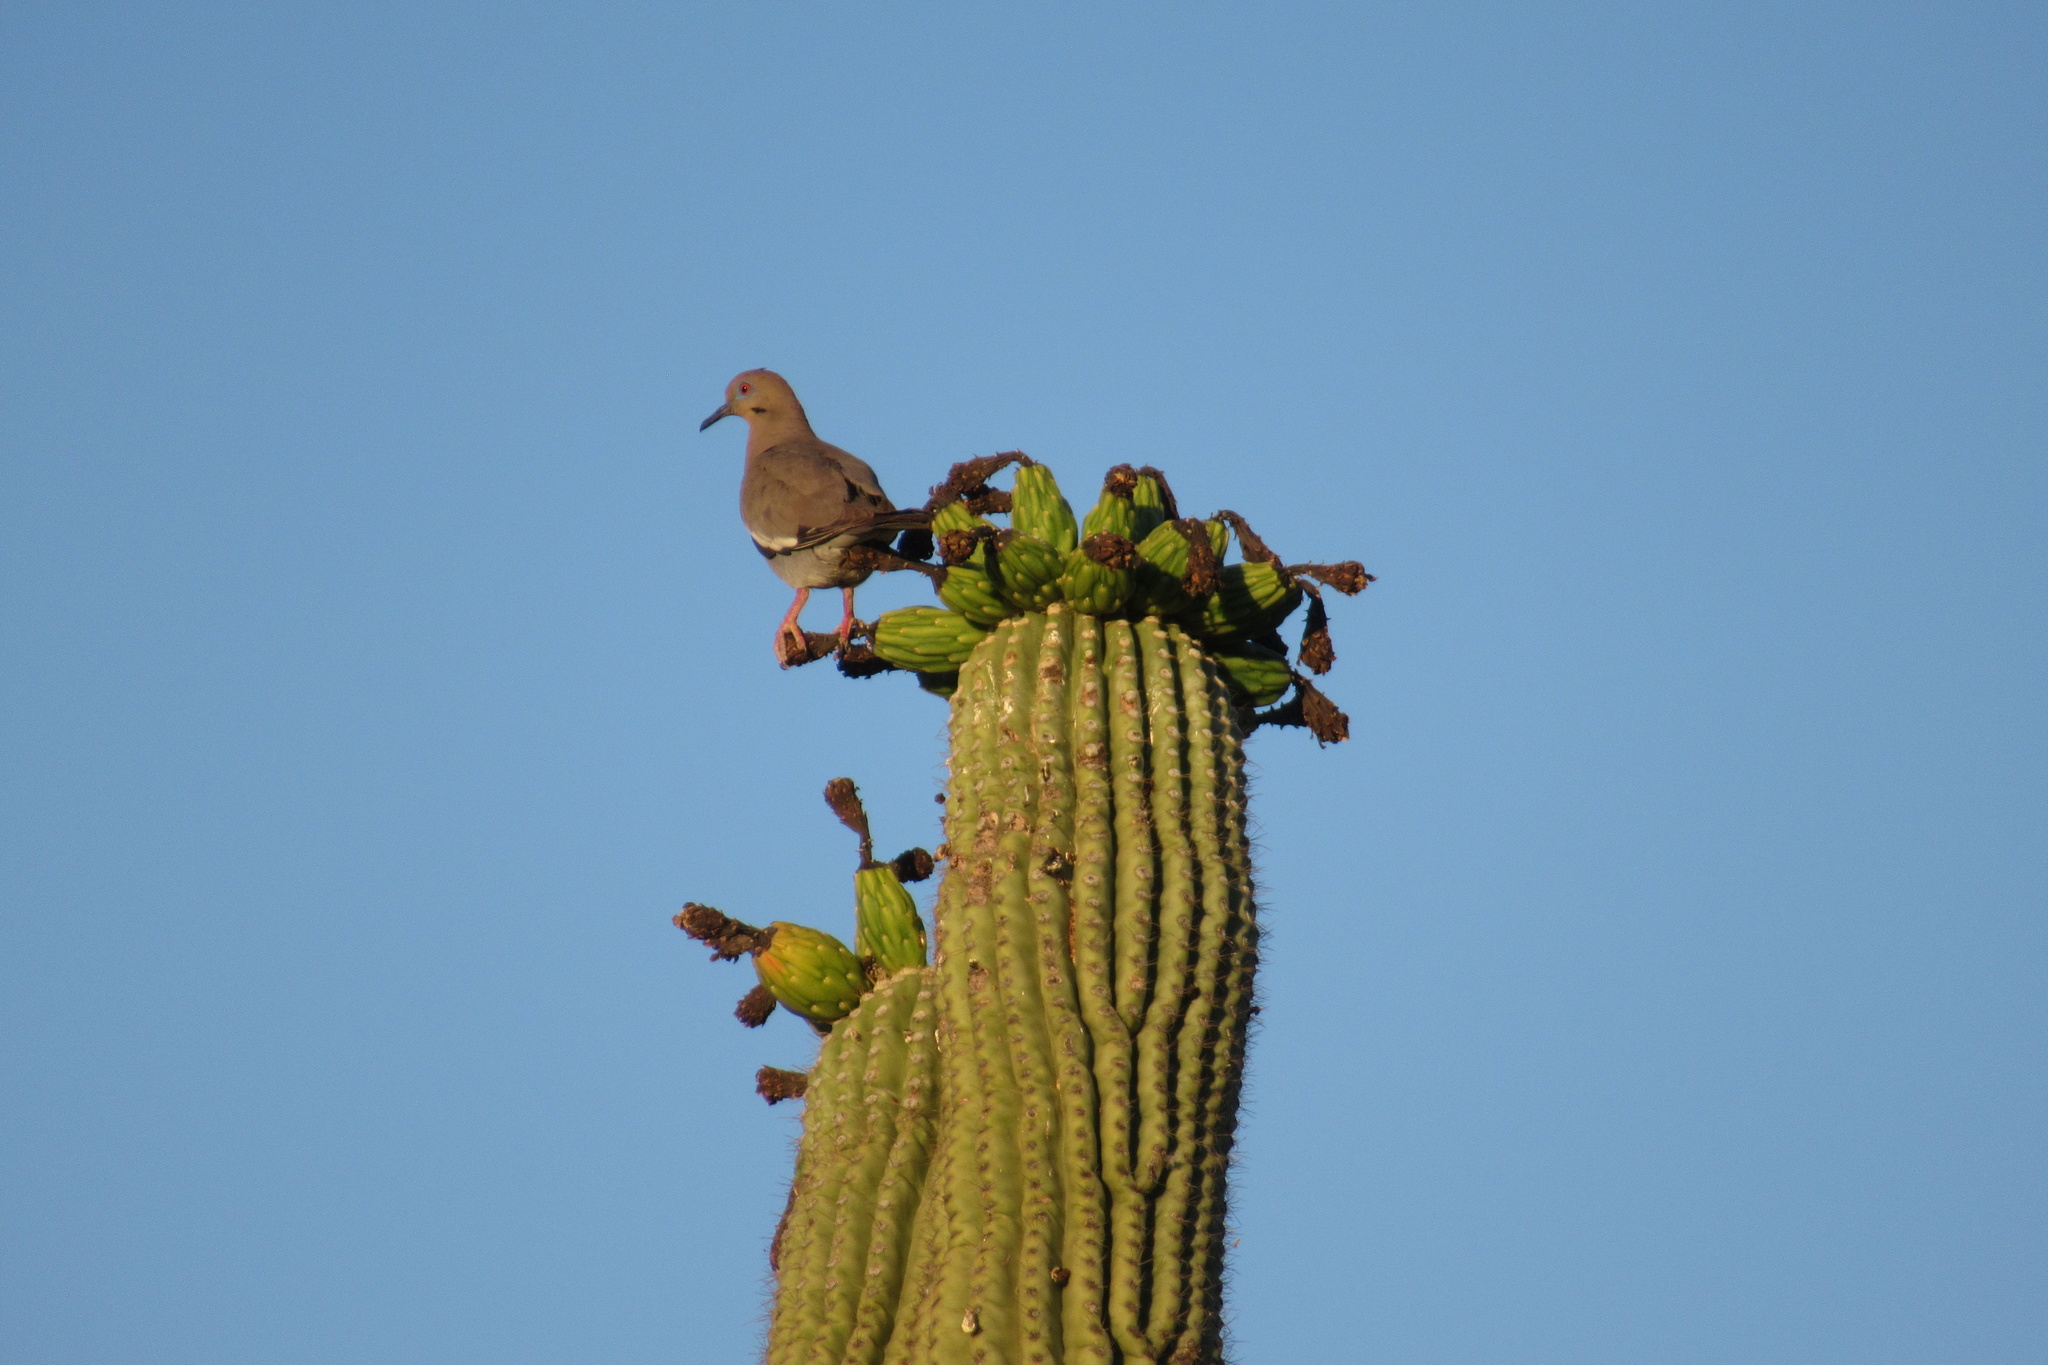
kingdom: Animalia
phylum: Chordata
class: Aves
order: Columbiformes
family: Columbidae
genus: Zenaida
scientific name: Zenaida asiatica
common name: White-winged dove
